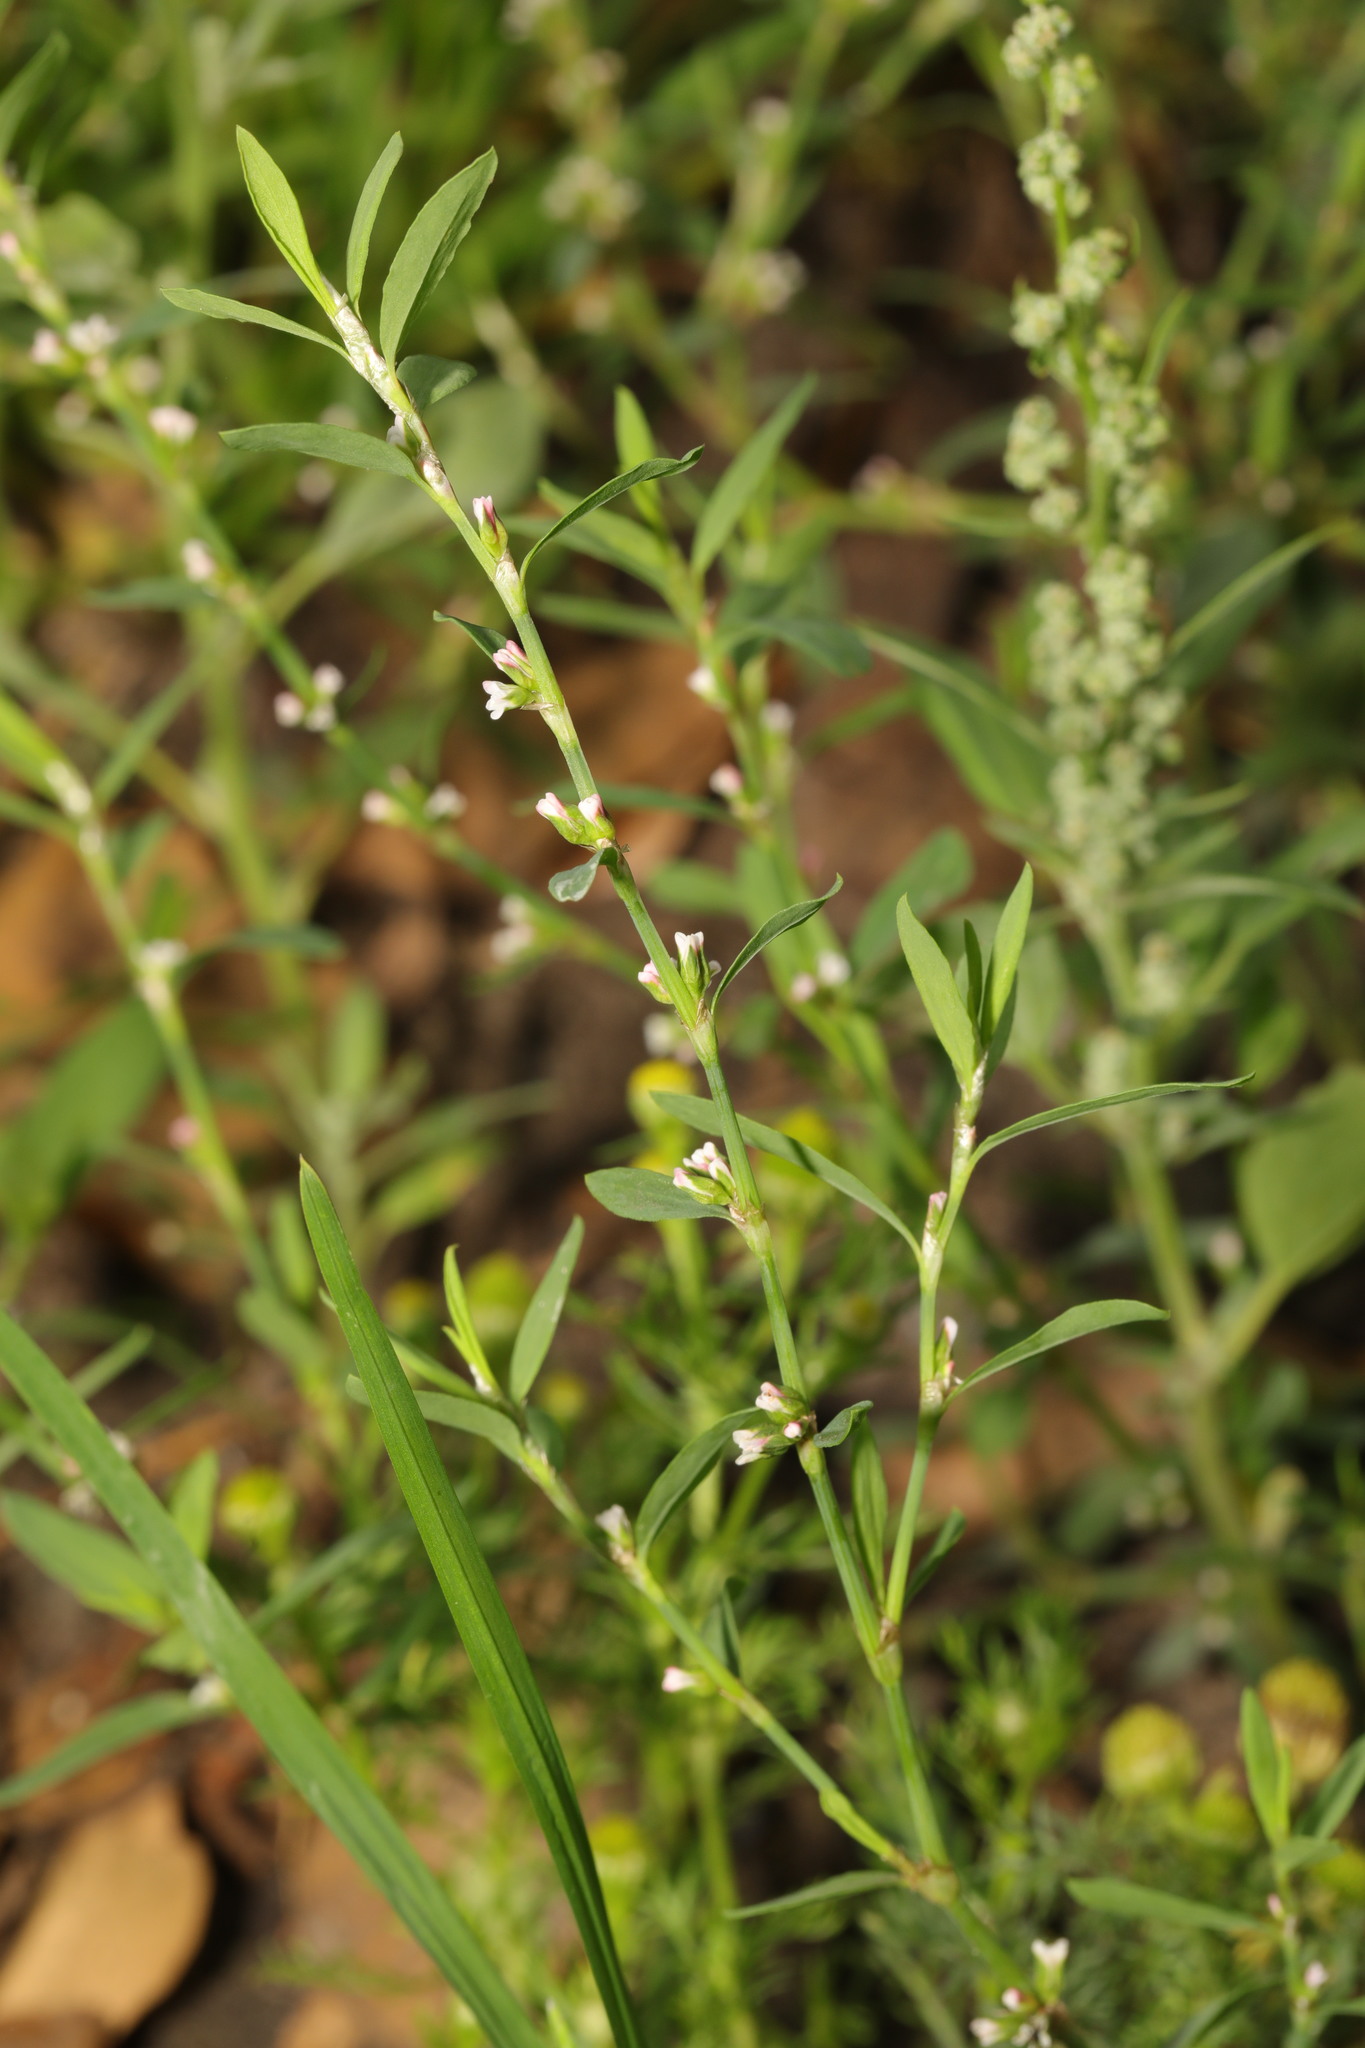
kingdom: Plantae
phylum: Tracheophyta
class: Magnoliopsida
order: Caryophyllales
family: Polygonaceae
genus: Polygonum
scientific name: Polygonum aviculare
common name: Prostrate knotweed
